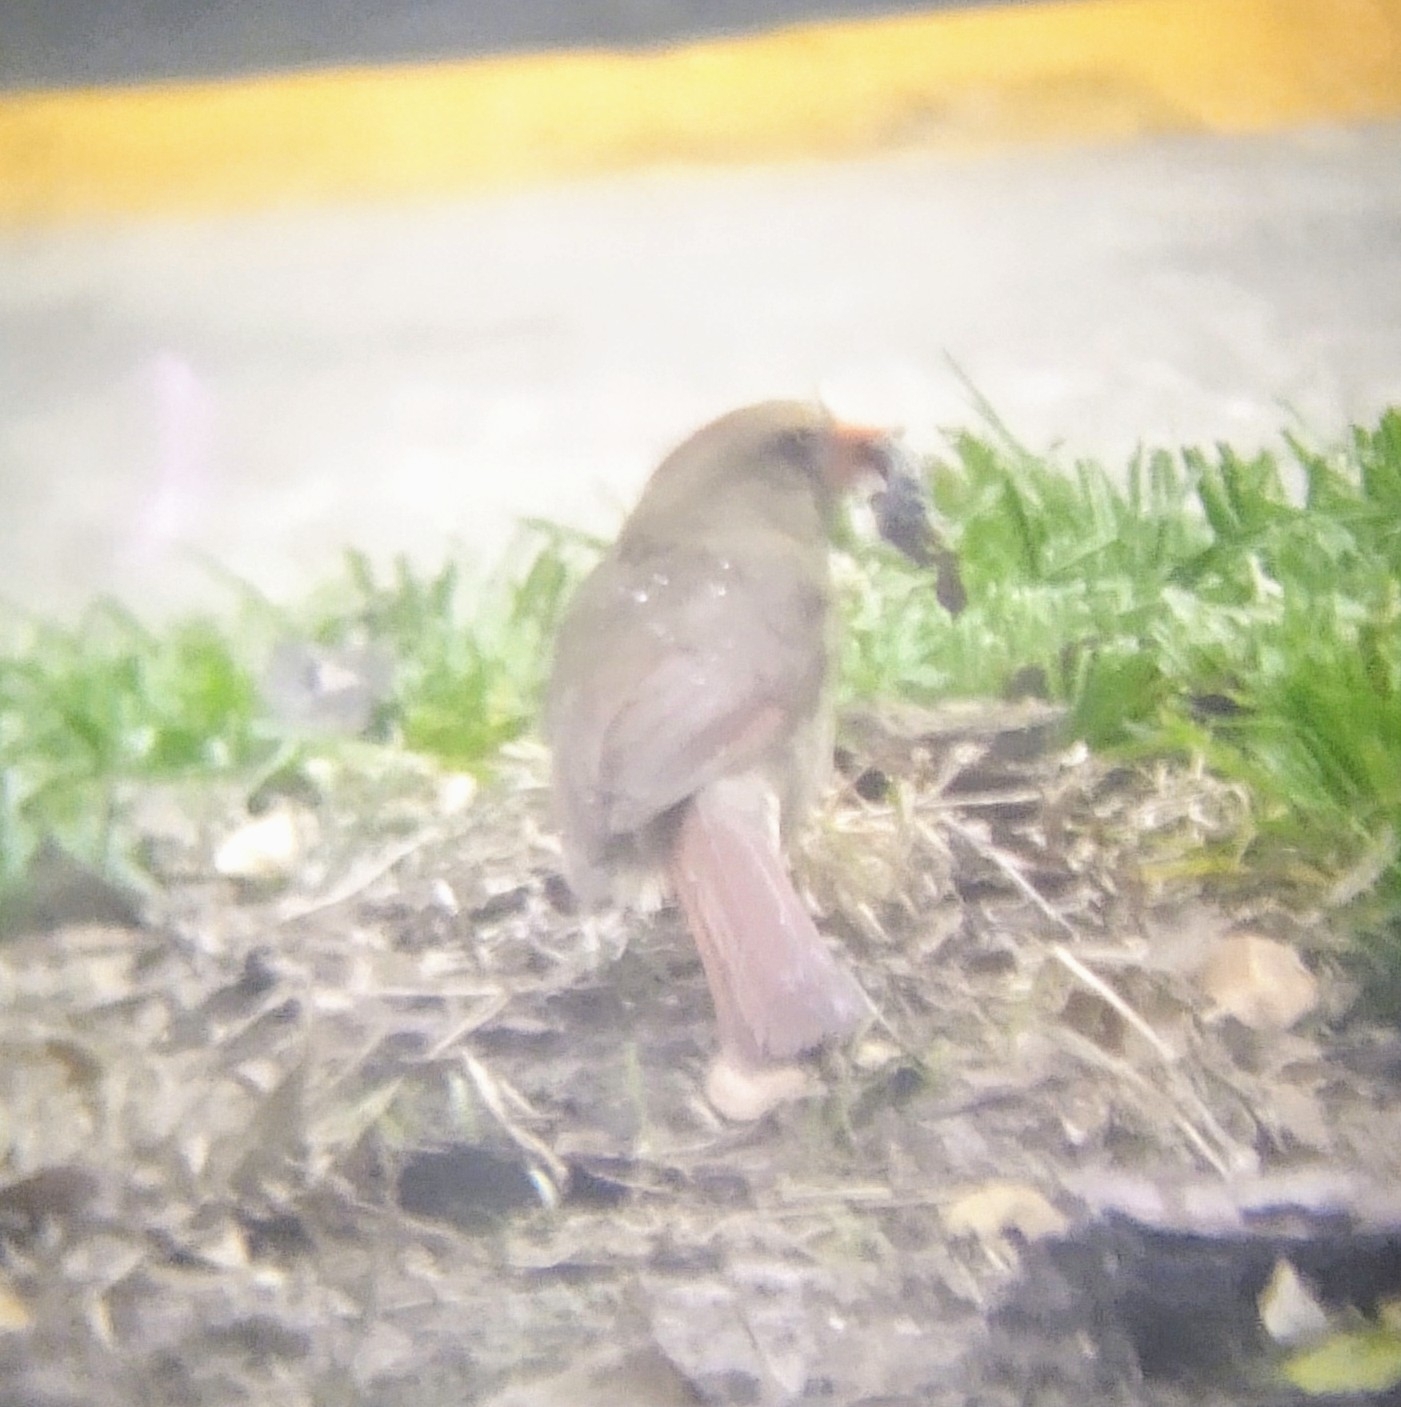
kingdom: Animalia
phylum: Chordata
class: Aves
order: Passeriformes
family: Cardinalidae
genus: Cardinalis
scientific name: Cardinalis cardinalis
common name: Northern cardinal
